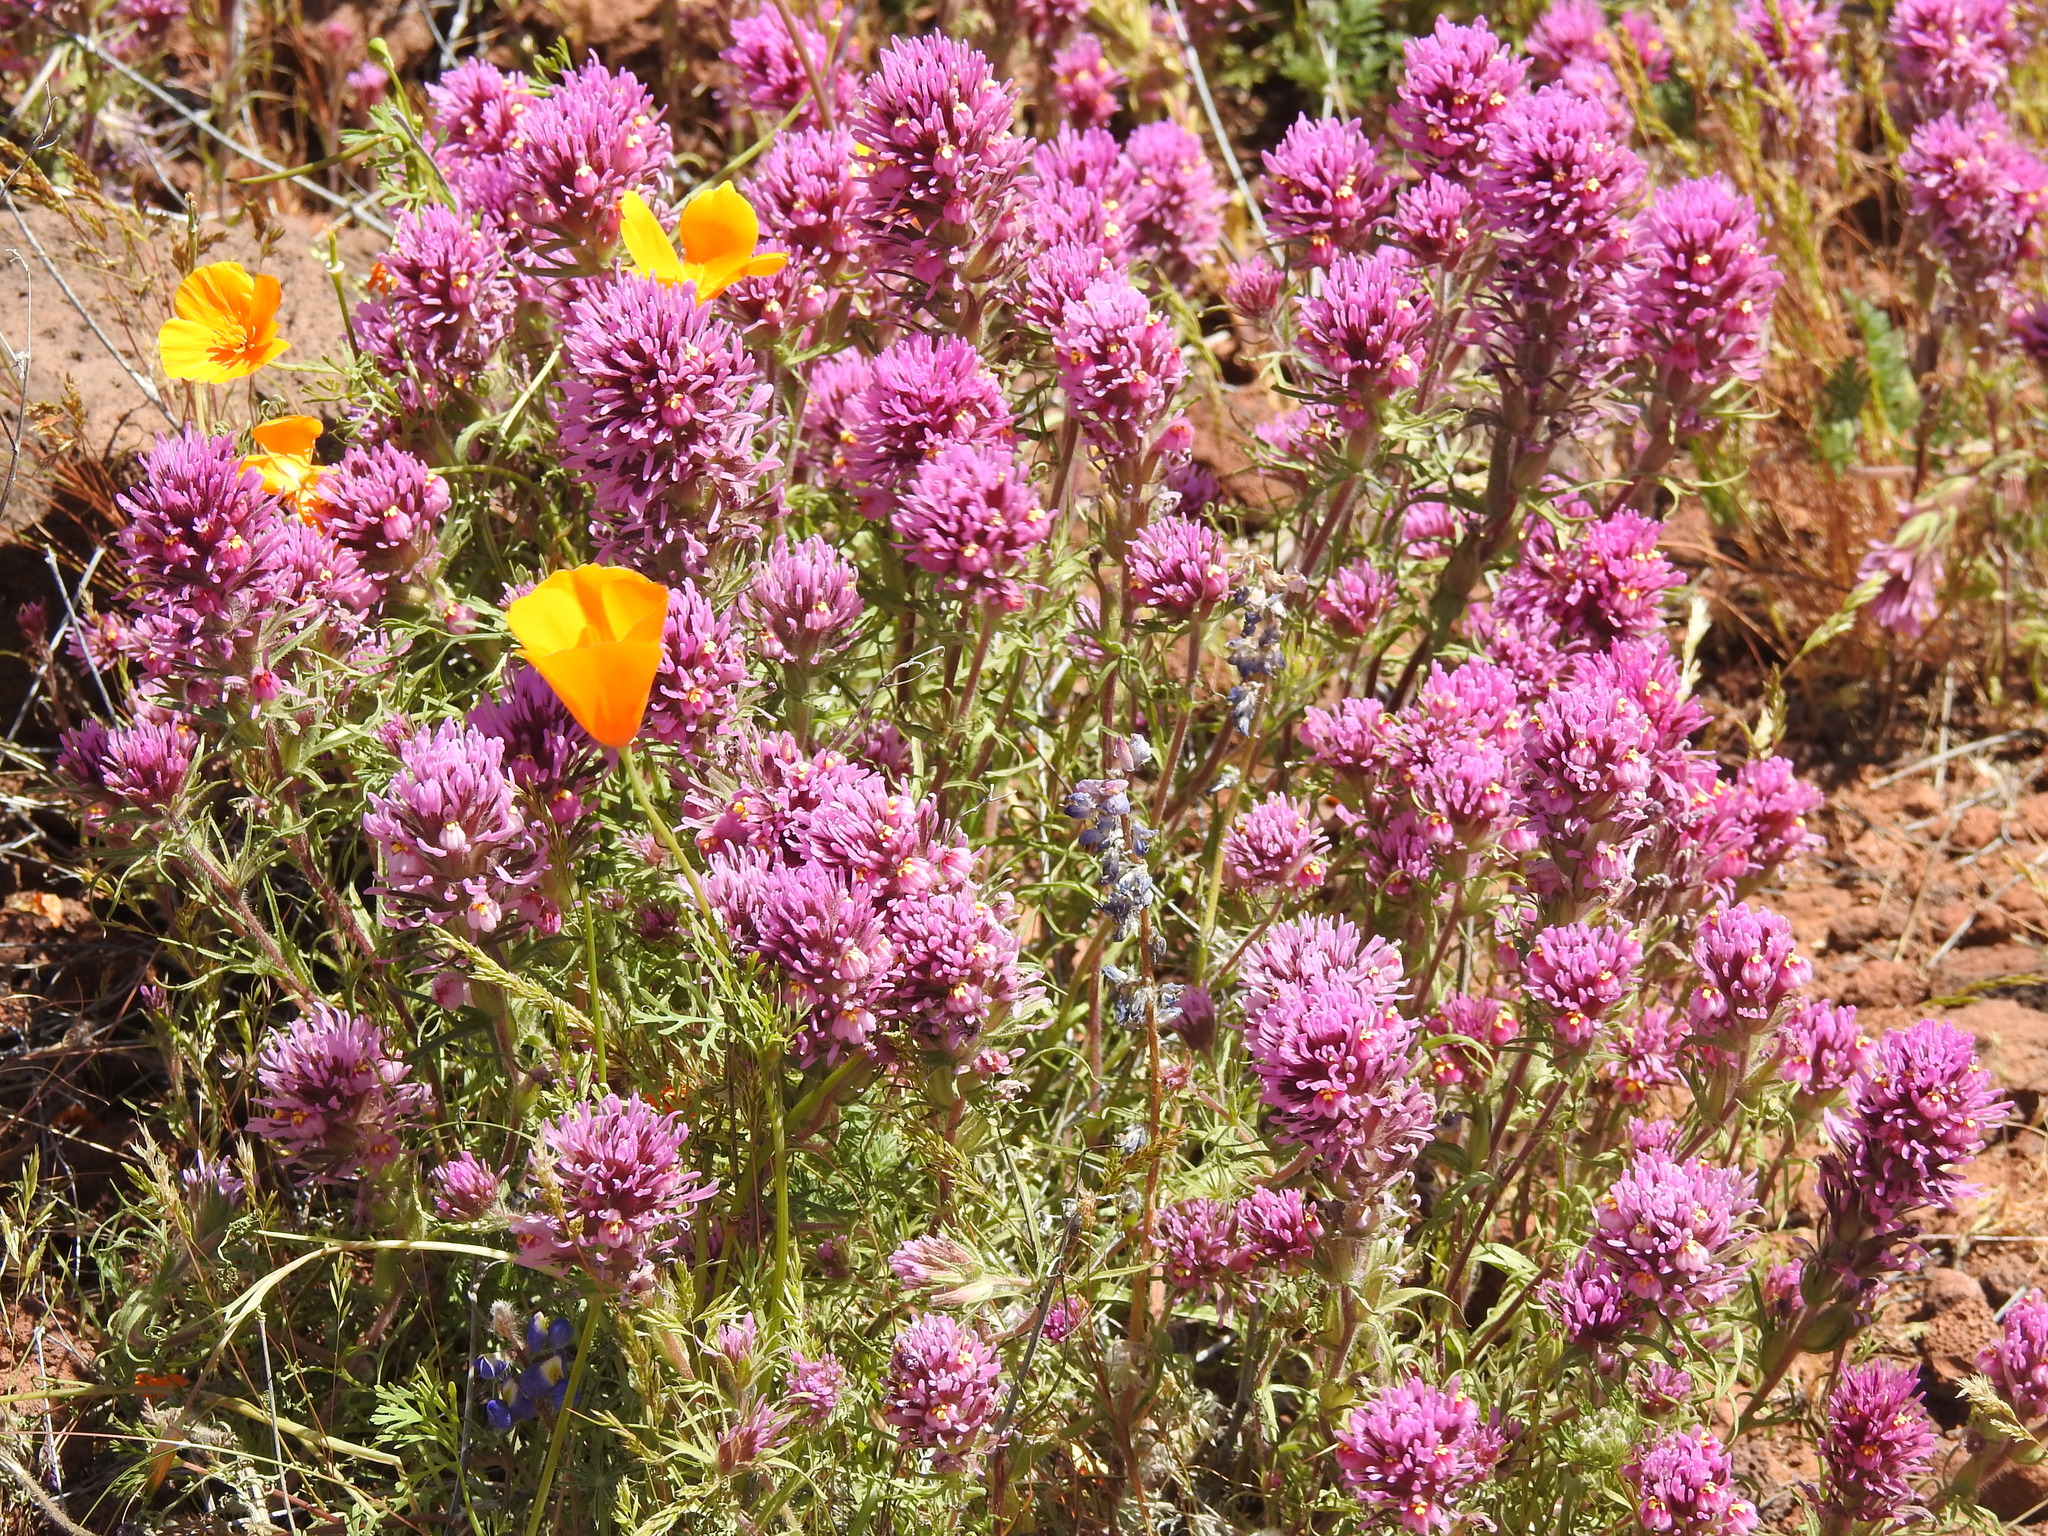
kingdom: Plantae
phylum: Tracheophyta
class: Magnoliopsida
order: Lamiales
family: Orobanchaceae
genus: Castilleja
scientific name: Castilleja exserta
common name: Purple owl-clover
